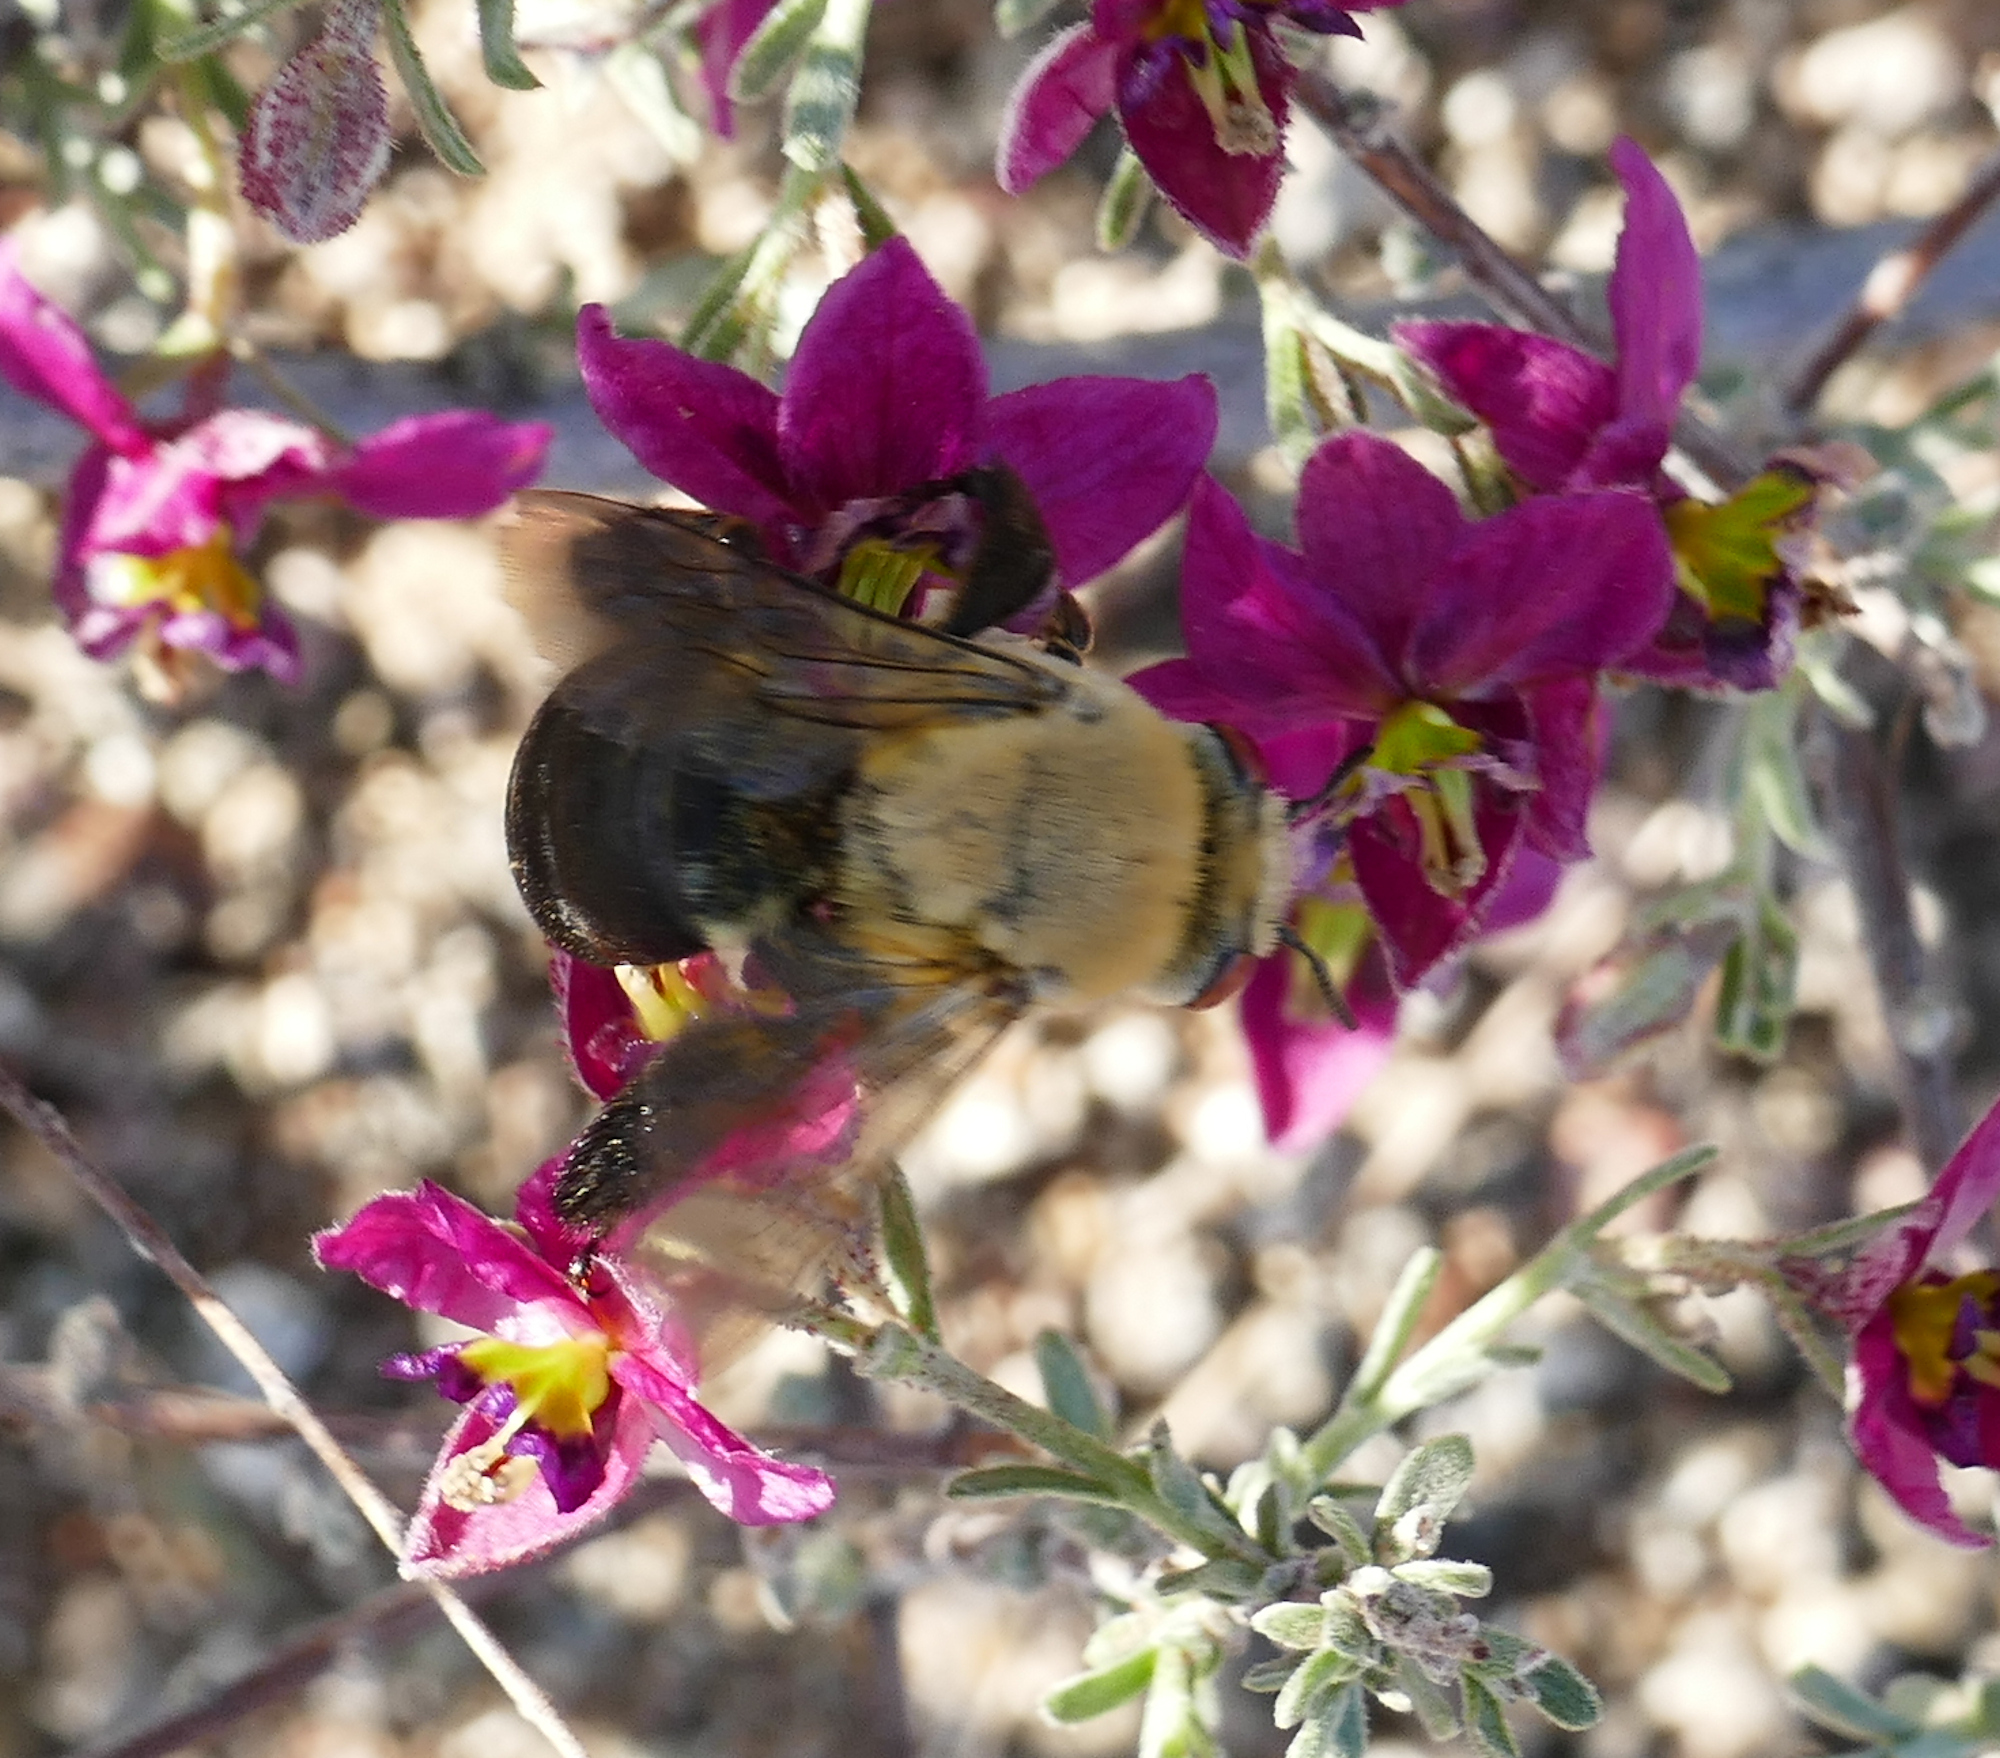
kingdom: Animalia
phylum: Arthropoda
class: Insecta
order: Hymenoptera
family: Apidae
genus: Centris
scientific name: Centris caesalpiniae
